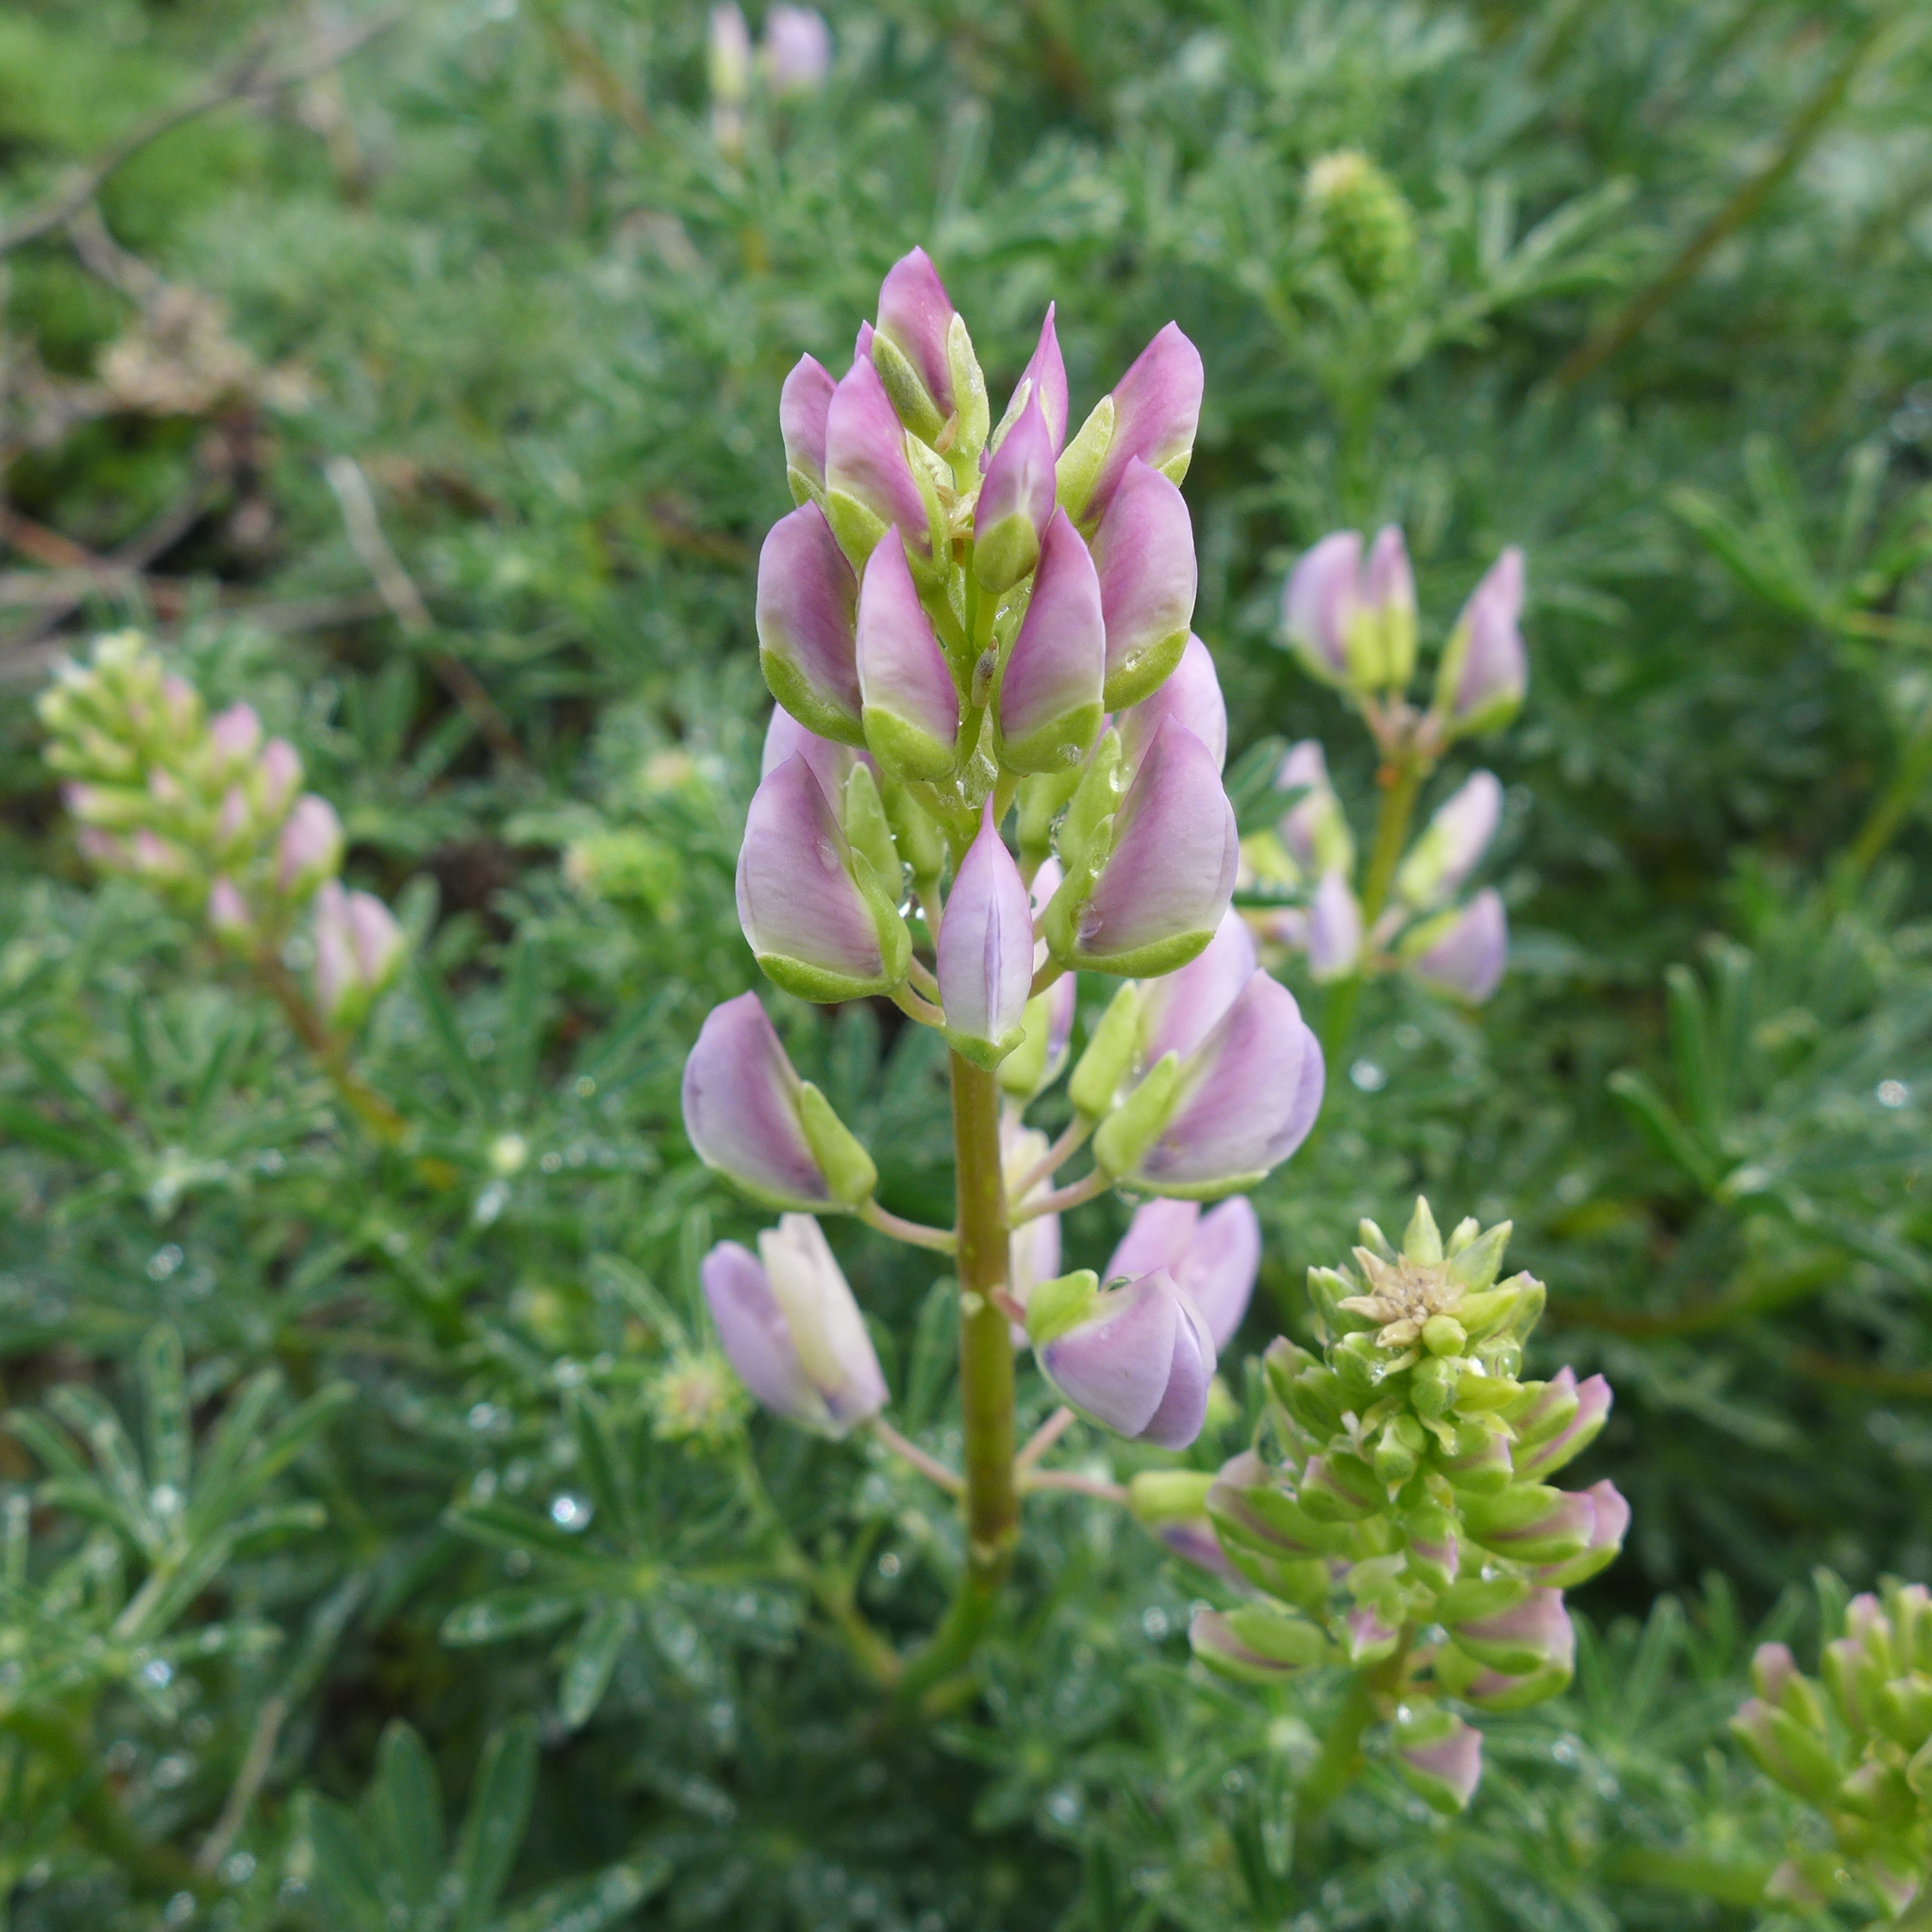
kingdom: Plantae
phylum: Tracheophyta
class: Magnoliopsida
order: Fabales
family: Fabaceae
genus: Lupinus
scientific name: Lupinus arboreus
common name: Yellow bush lupine
